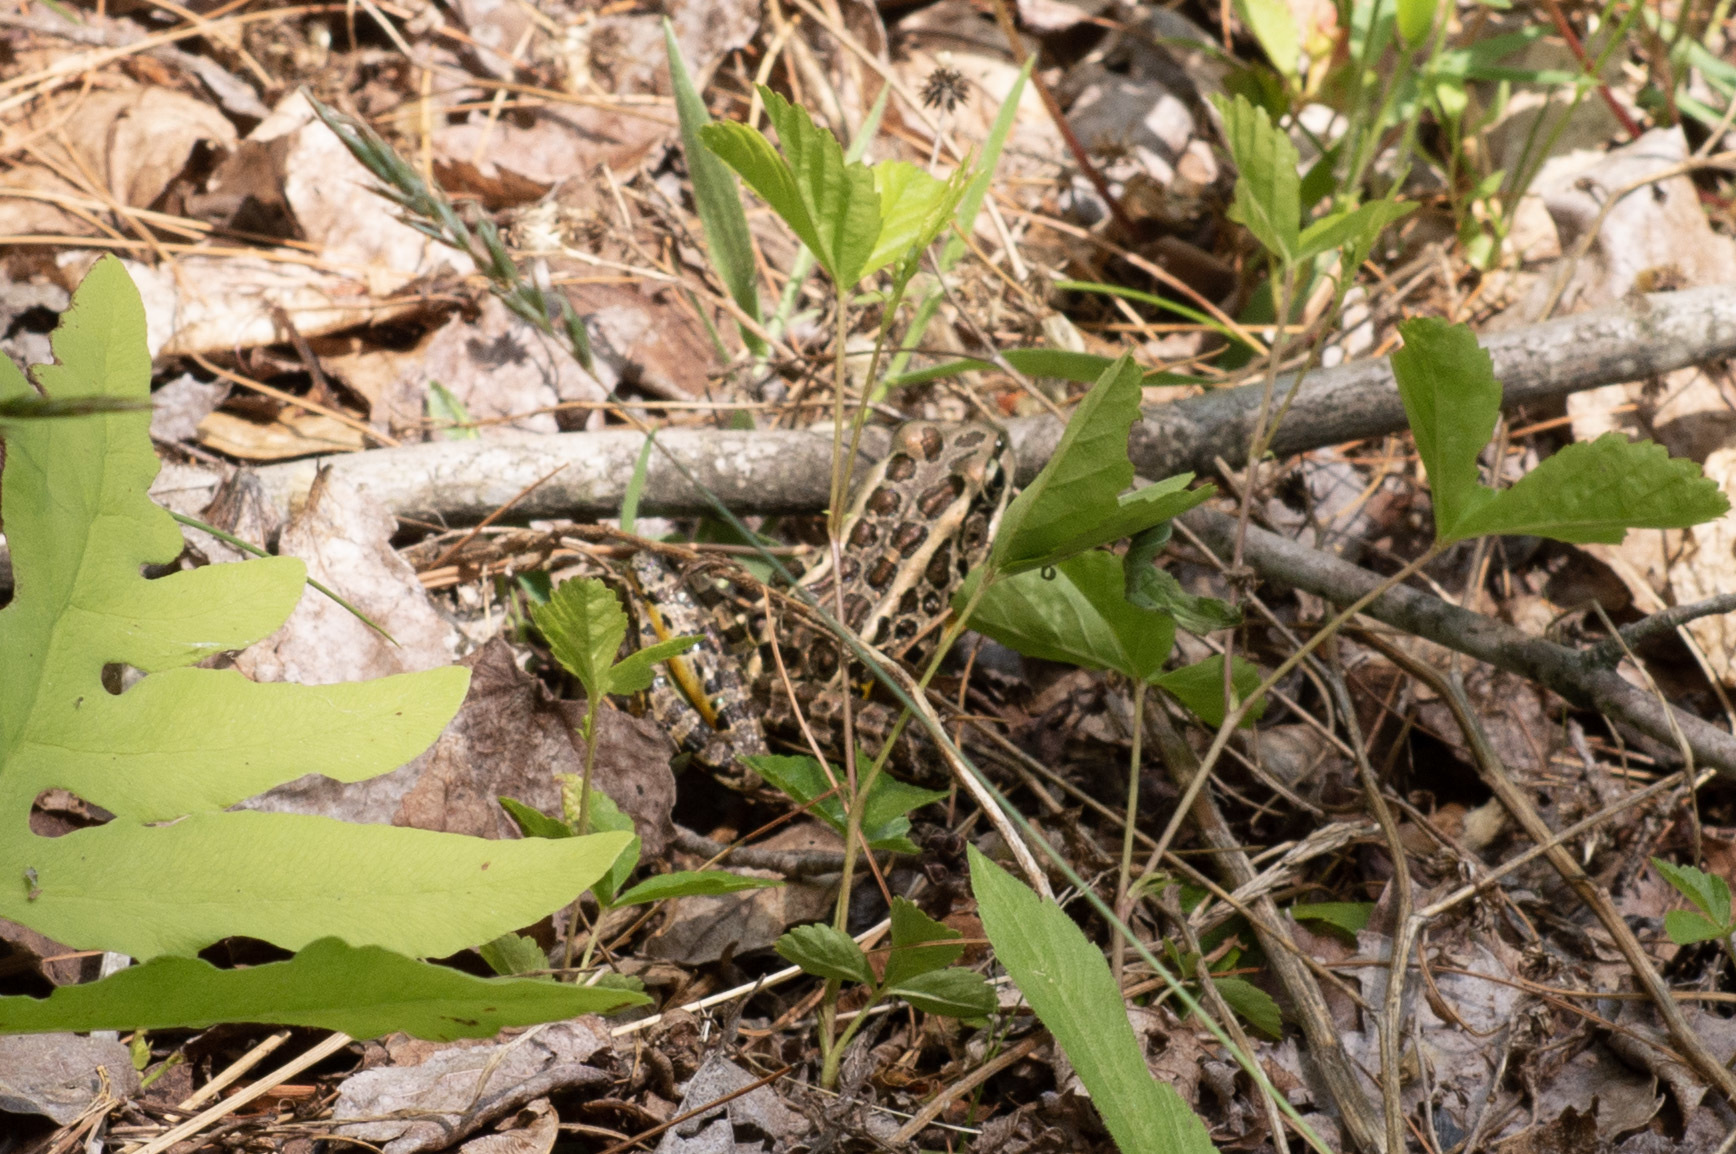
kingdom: Animalia
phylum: Chordata
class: Amphibia
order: Anura
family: Ranidae
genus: Lithobates
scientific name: Lithobates palustris
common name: Pickerel frog
